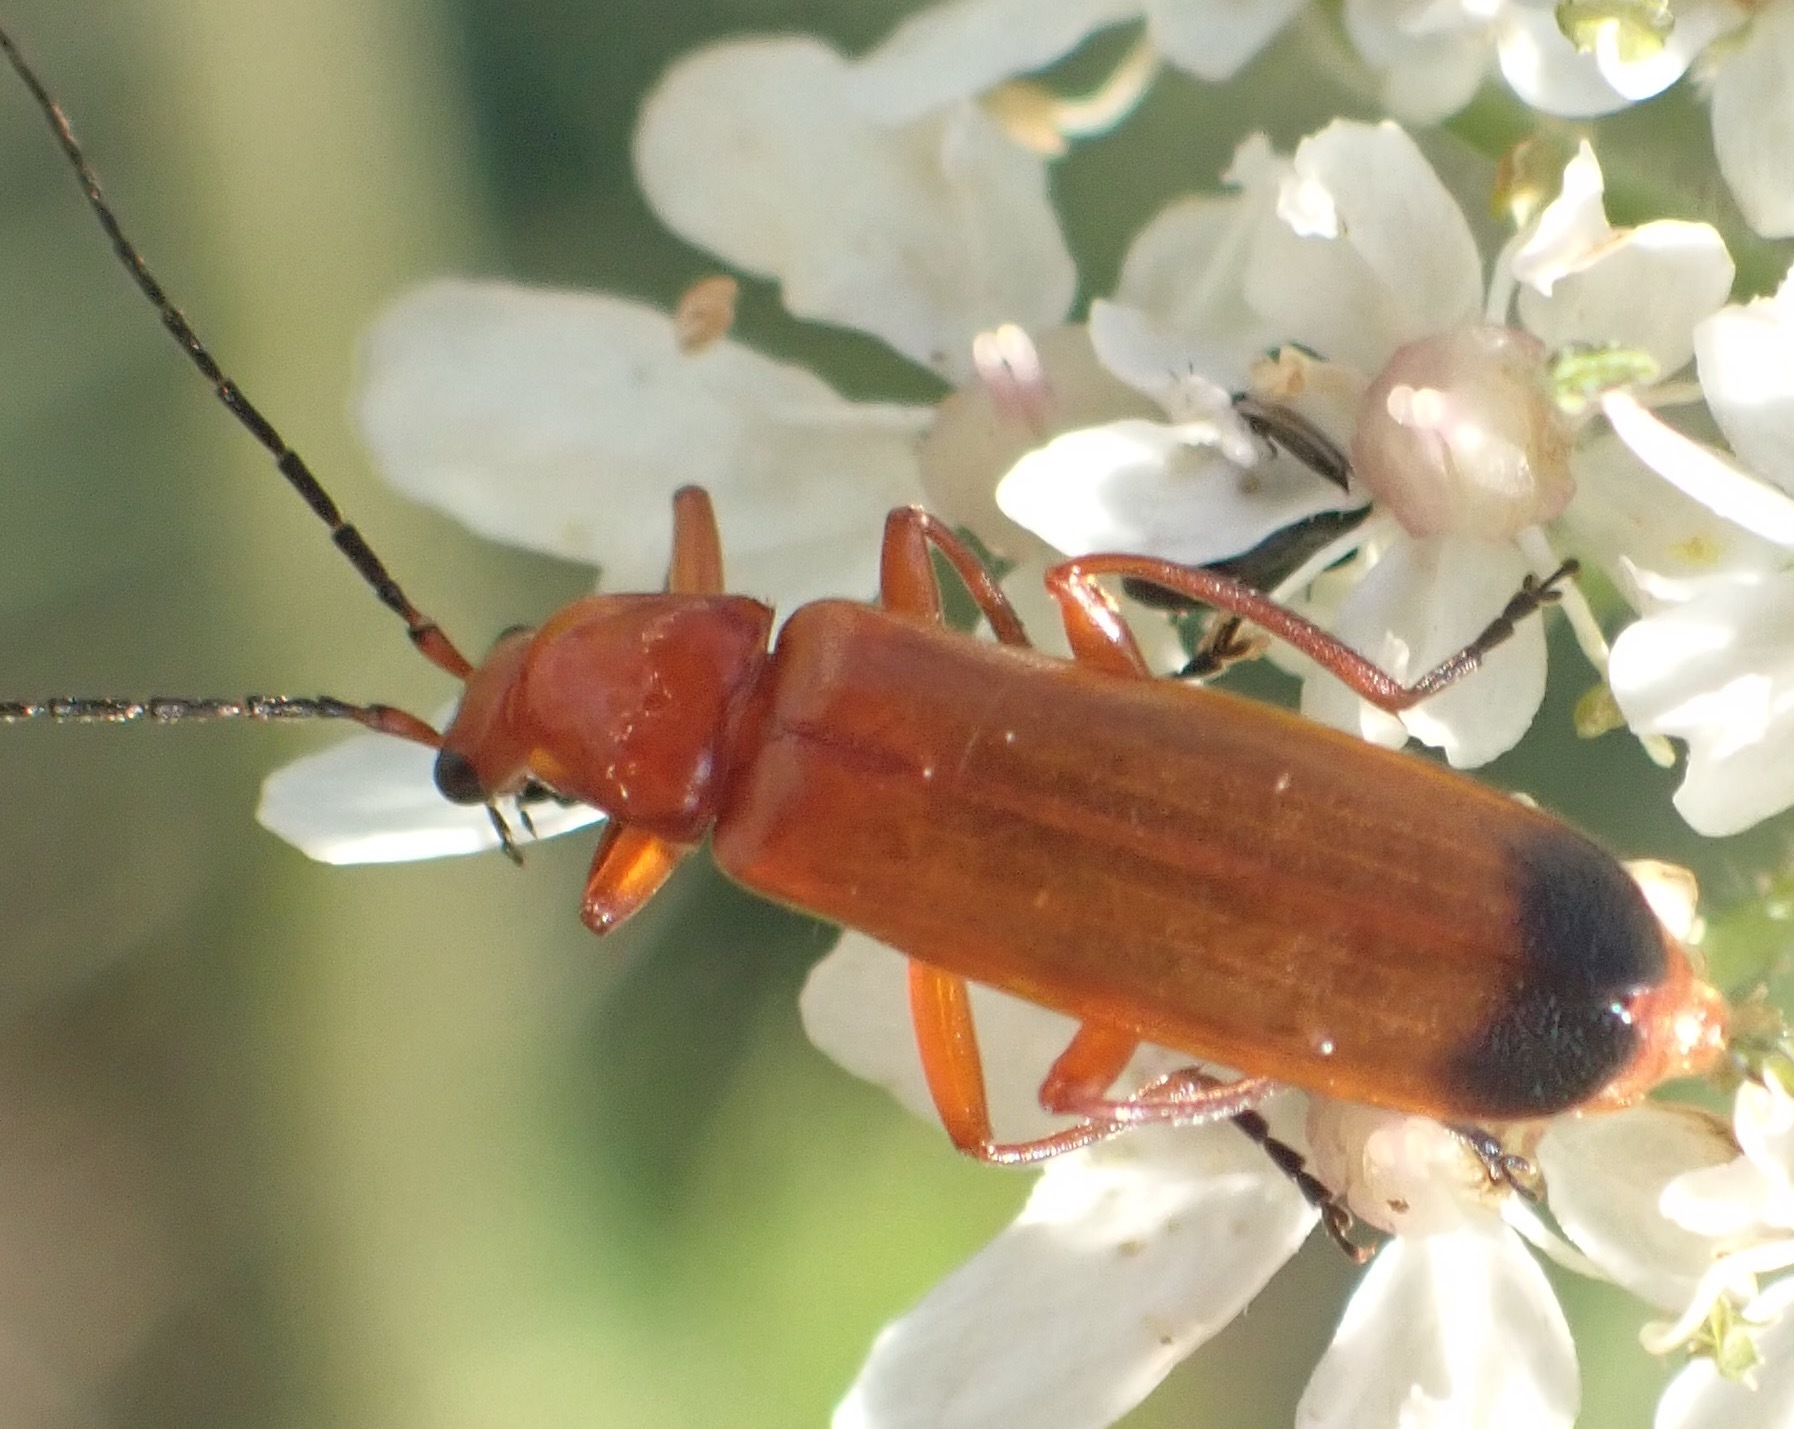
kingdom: Animalia
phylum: Arthropoda
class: Insecta
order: Coleoptera
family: Cantharidae
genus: Rhagonycha
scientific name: Rhagonycha fulva
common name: Common red soldier beetle
